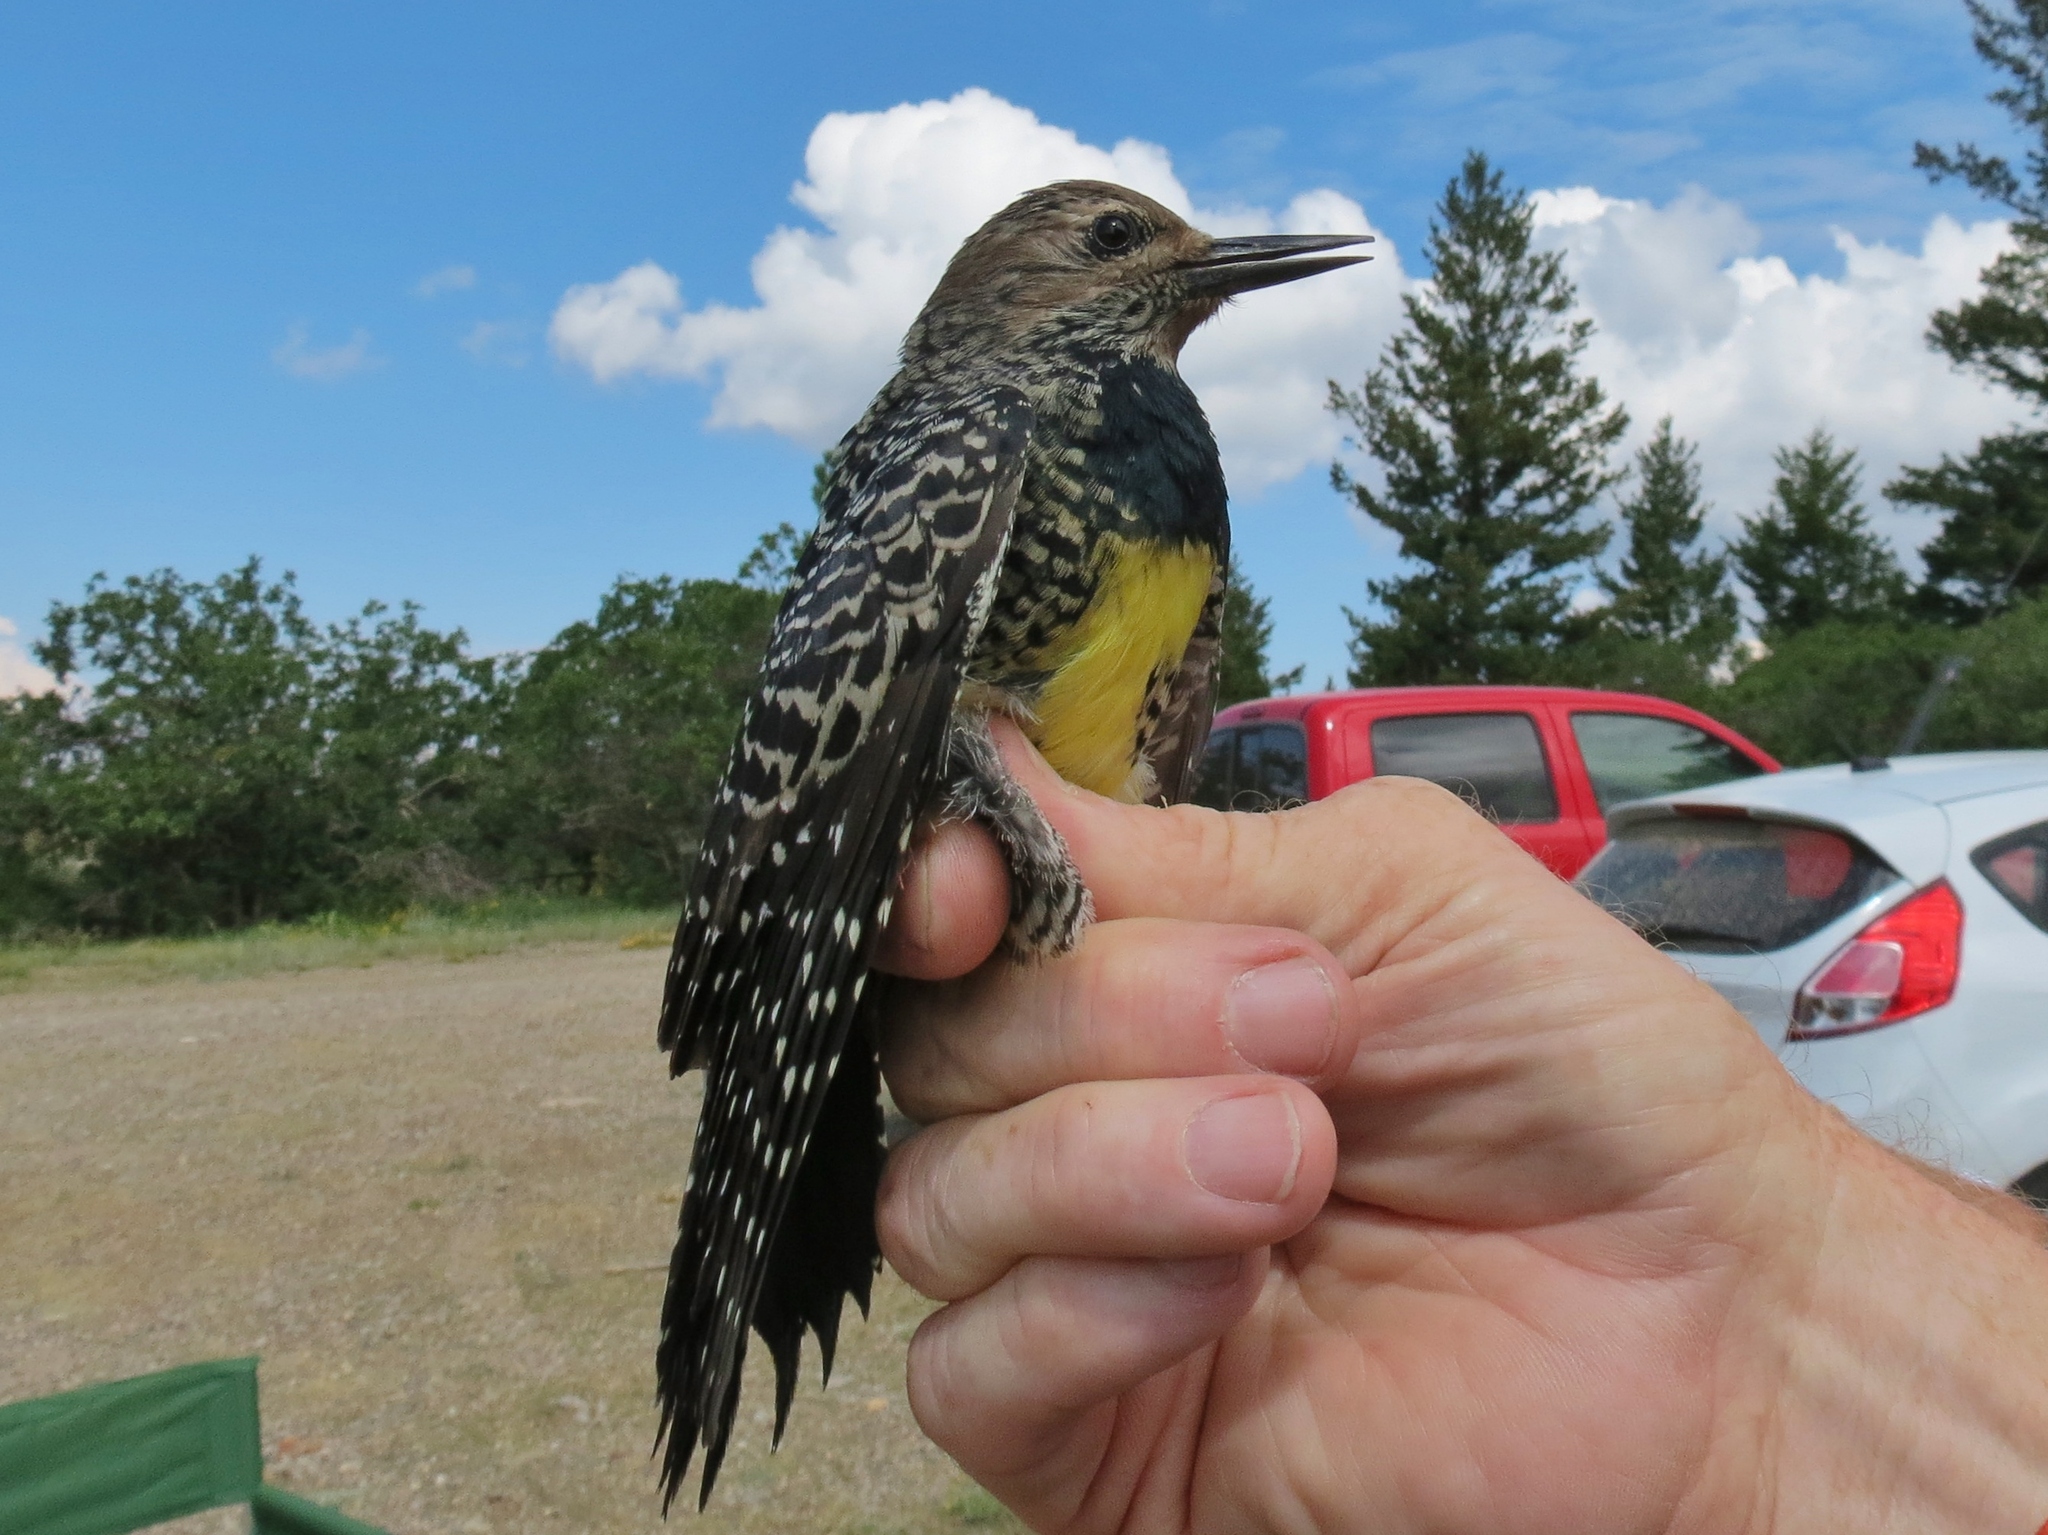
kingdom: Animalia
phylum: Chordata
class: Aves
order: Piciformes
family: Picidae
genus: Sphyrapicus
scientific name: Sphyrapicus thyroideus
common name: Williamson's sapsucker
